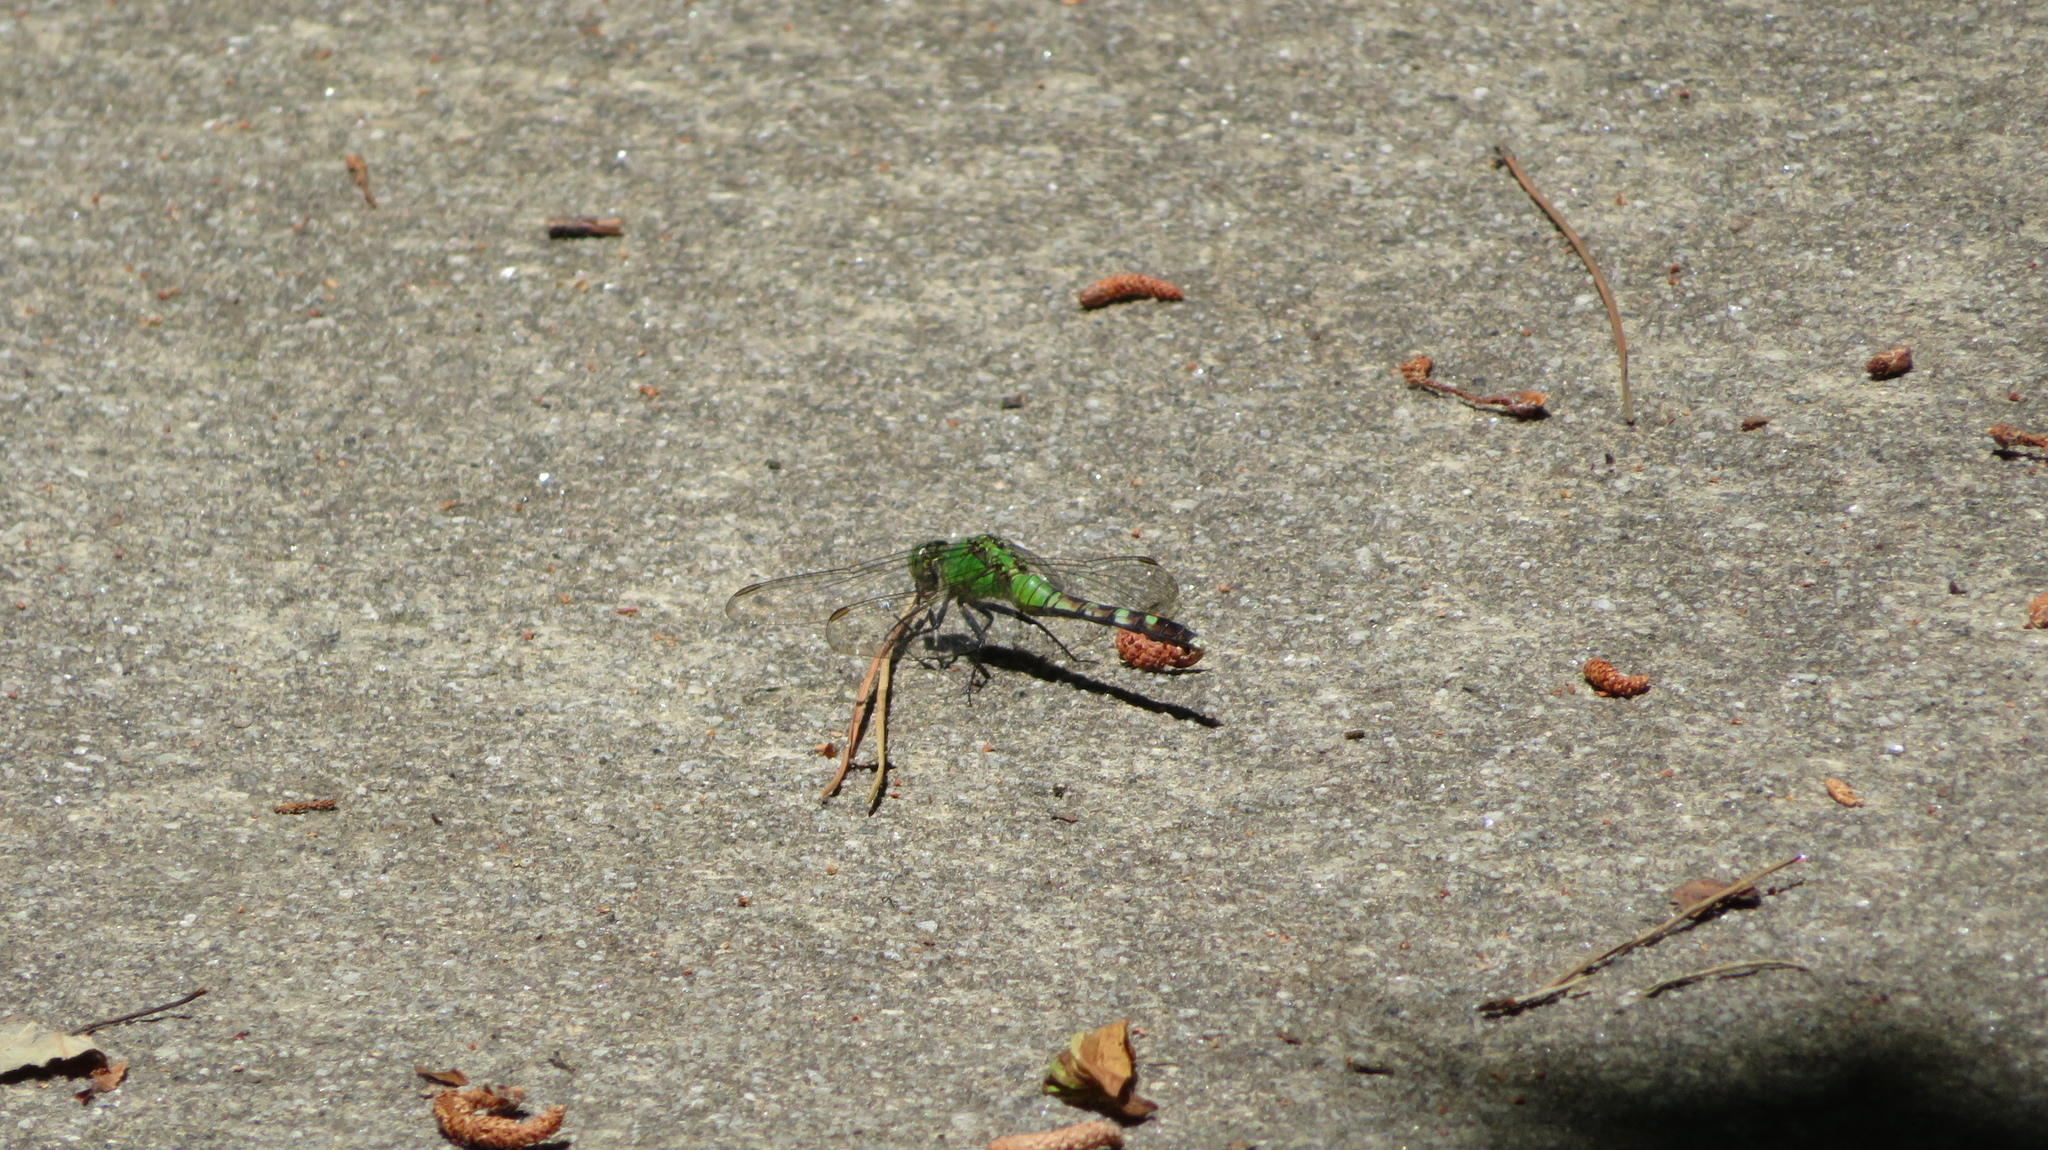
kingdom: Animalia
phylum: Arthropoda
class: Insecta
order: Odonata
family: Libellulidae
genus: Erythemis
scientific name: Erythemis simplicicollis
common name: Eastern pondhawk
